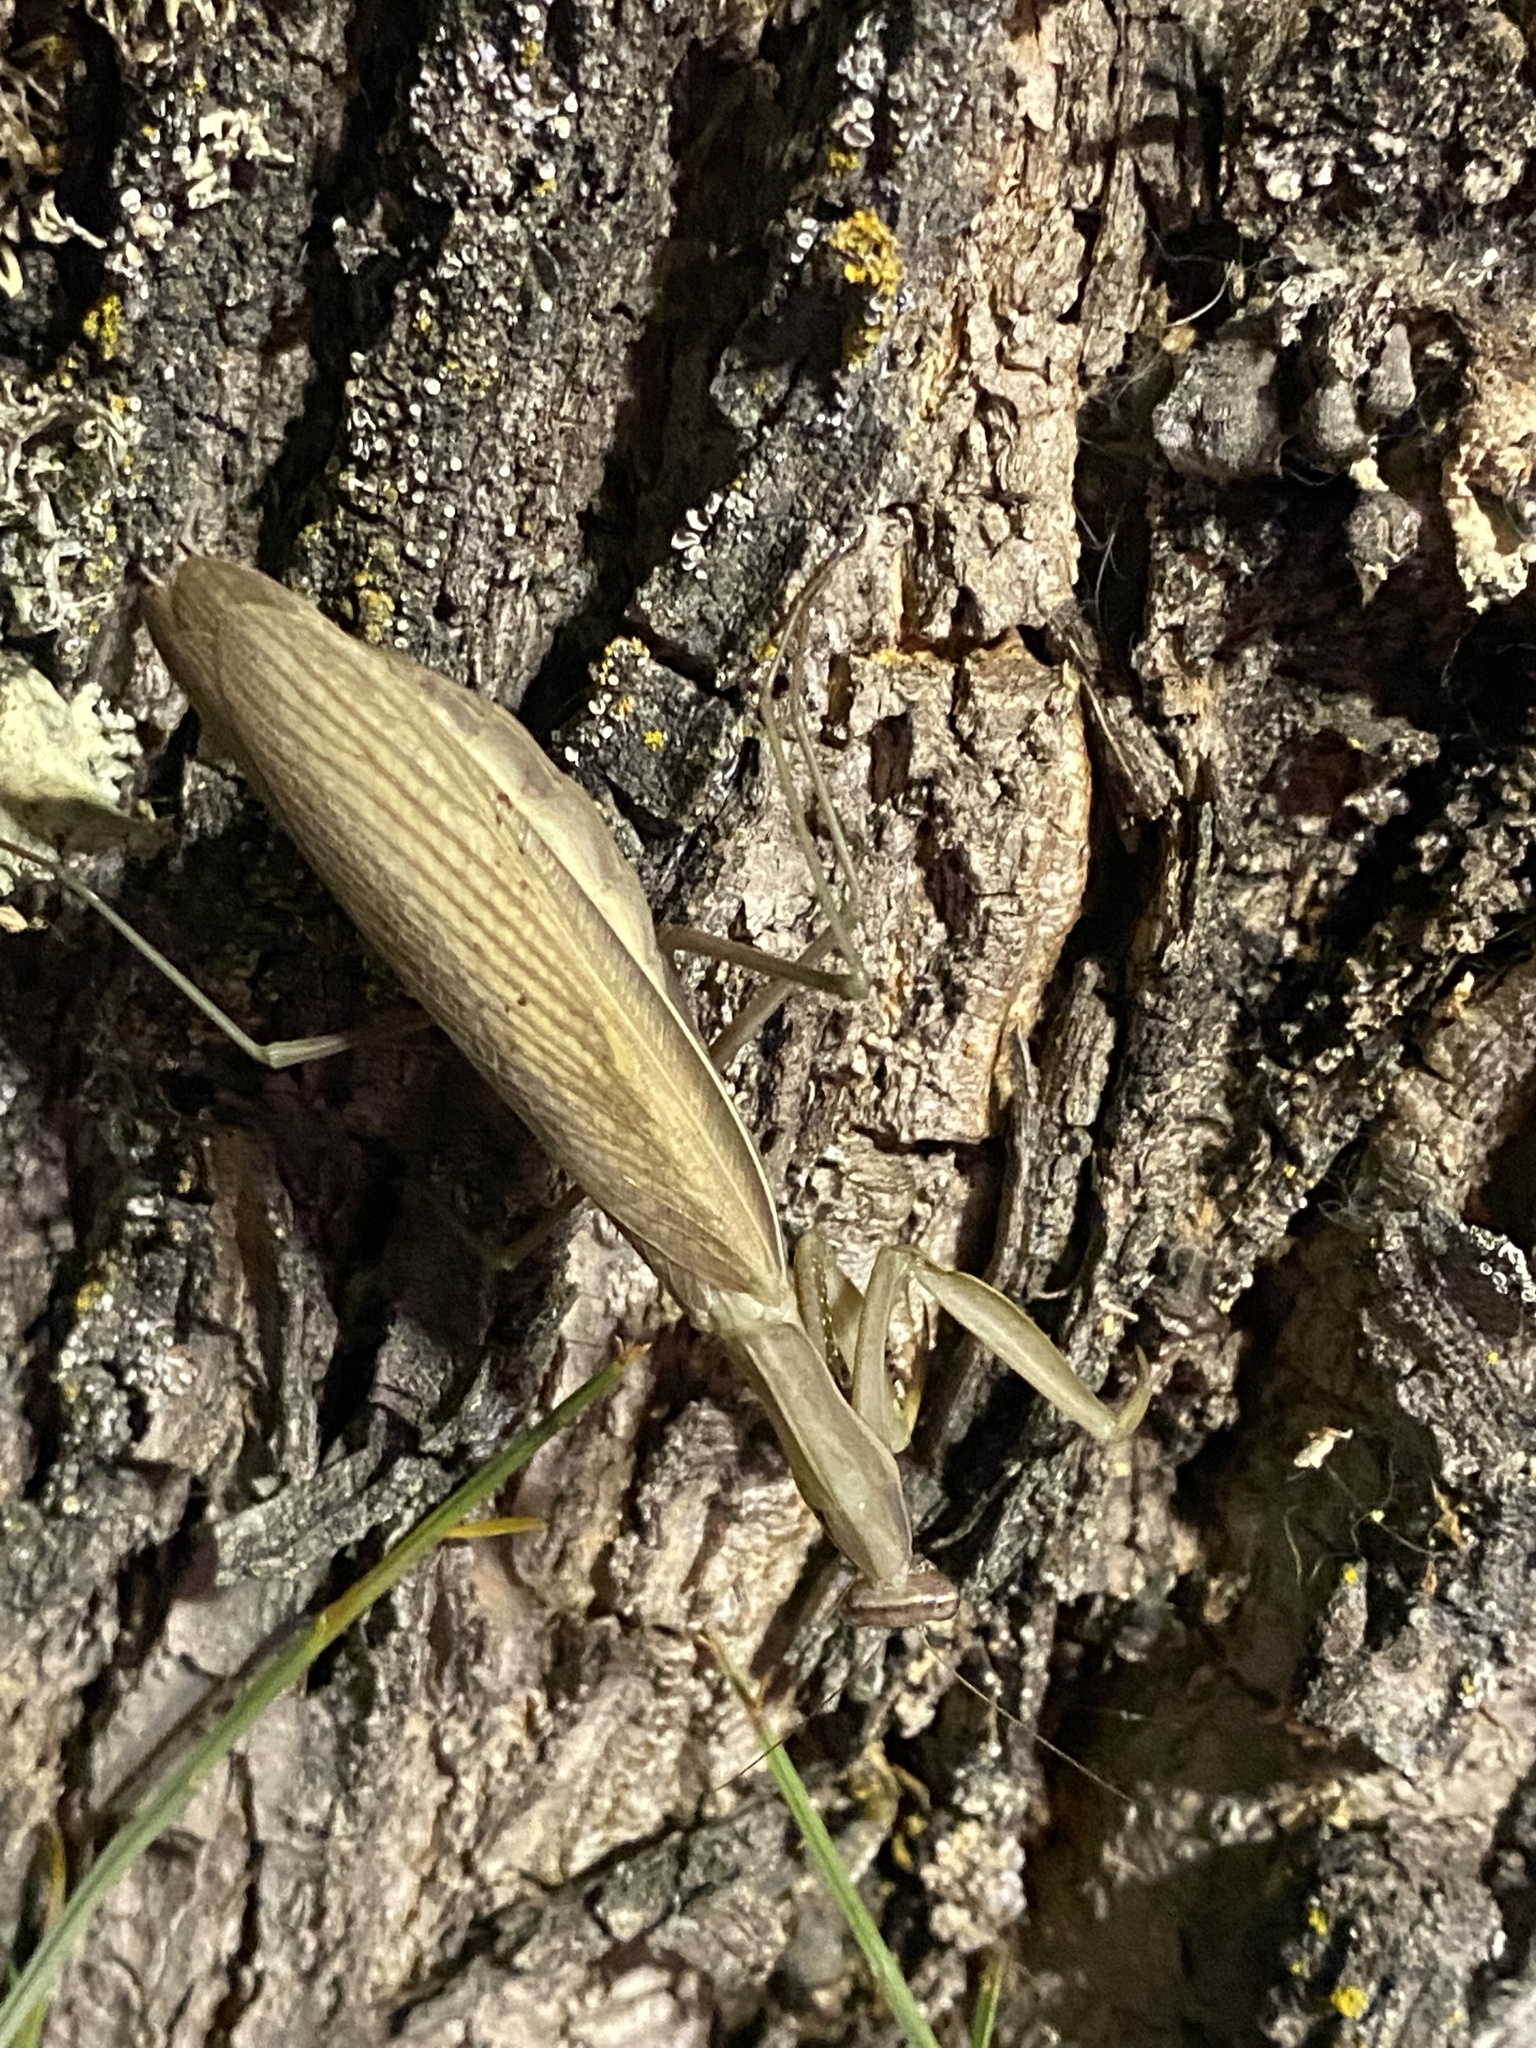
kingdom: Animalia
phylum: Arthropoda
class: Insecta
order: Mantodea
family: Mantidae
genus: Mantis
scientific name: Mantis religiosa
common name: Praying mantis
